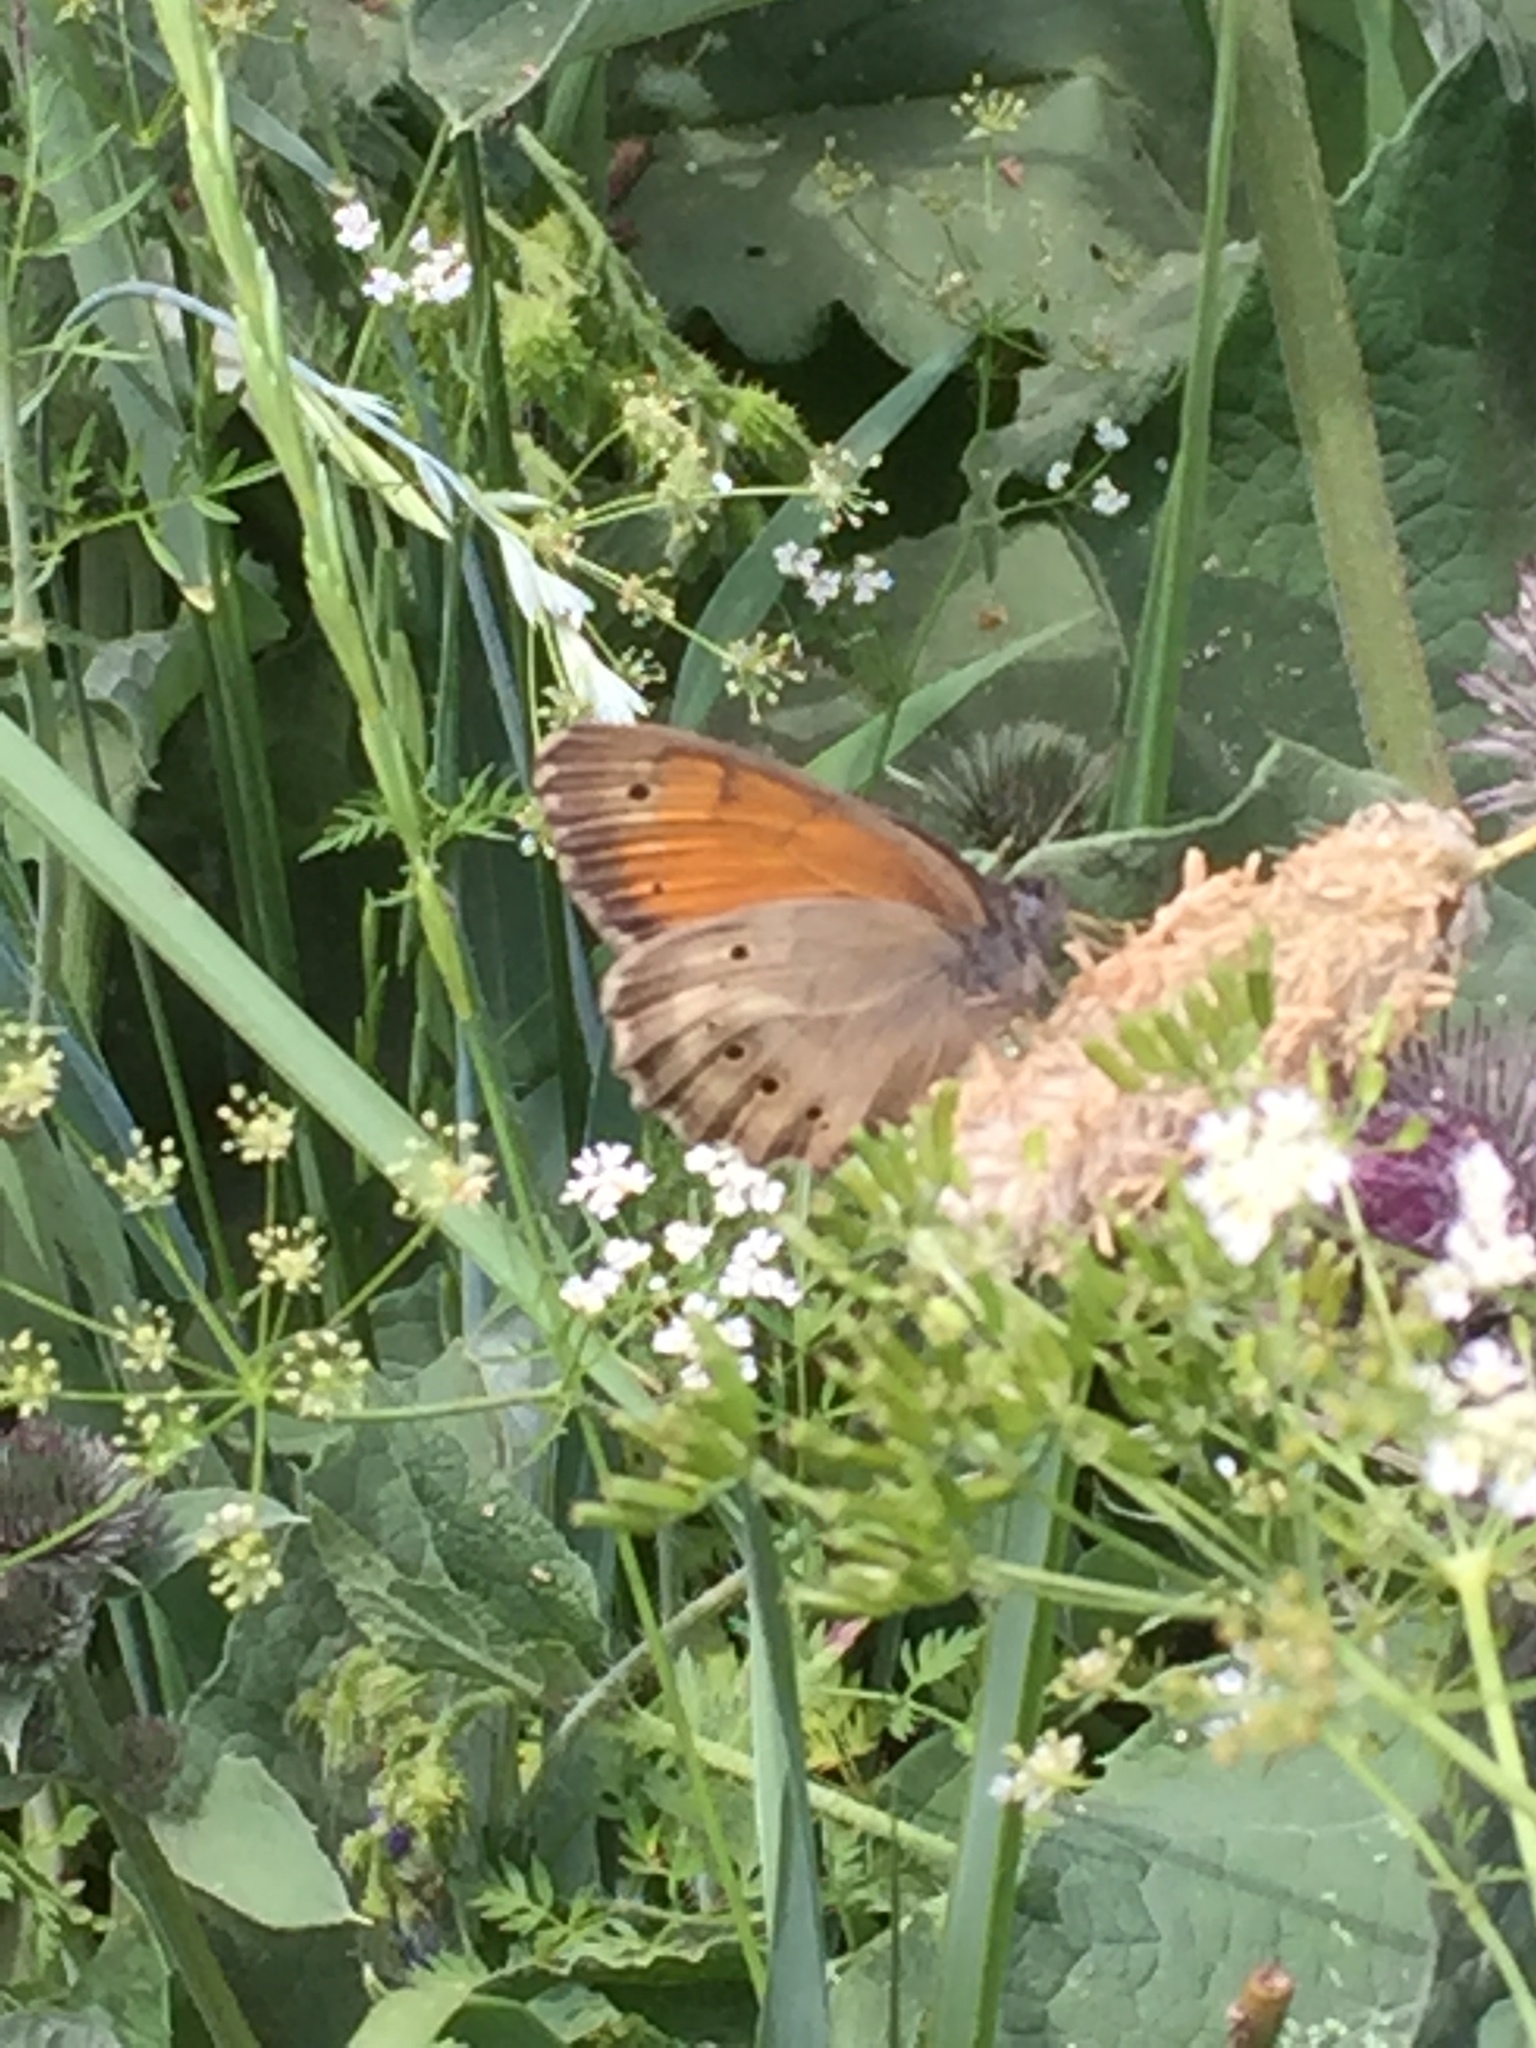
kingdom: Animalia
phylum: Arthropoda
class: Insecta
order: Lepidoptera
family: Nymphalidae
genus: Kirinia
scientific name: Kirinia climene
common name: Lesser lattice brown
